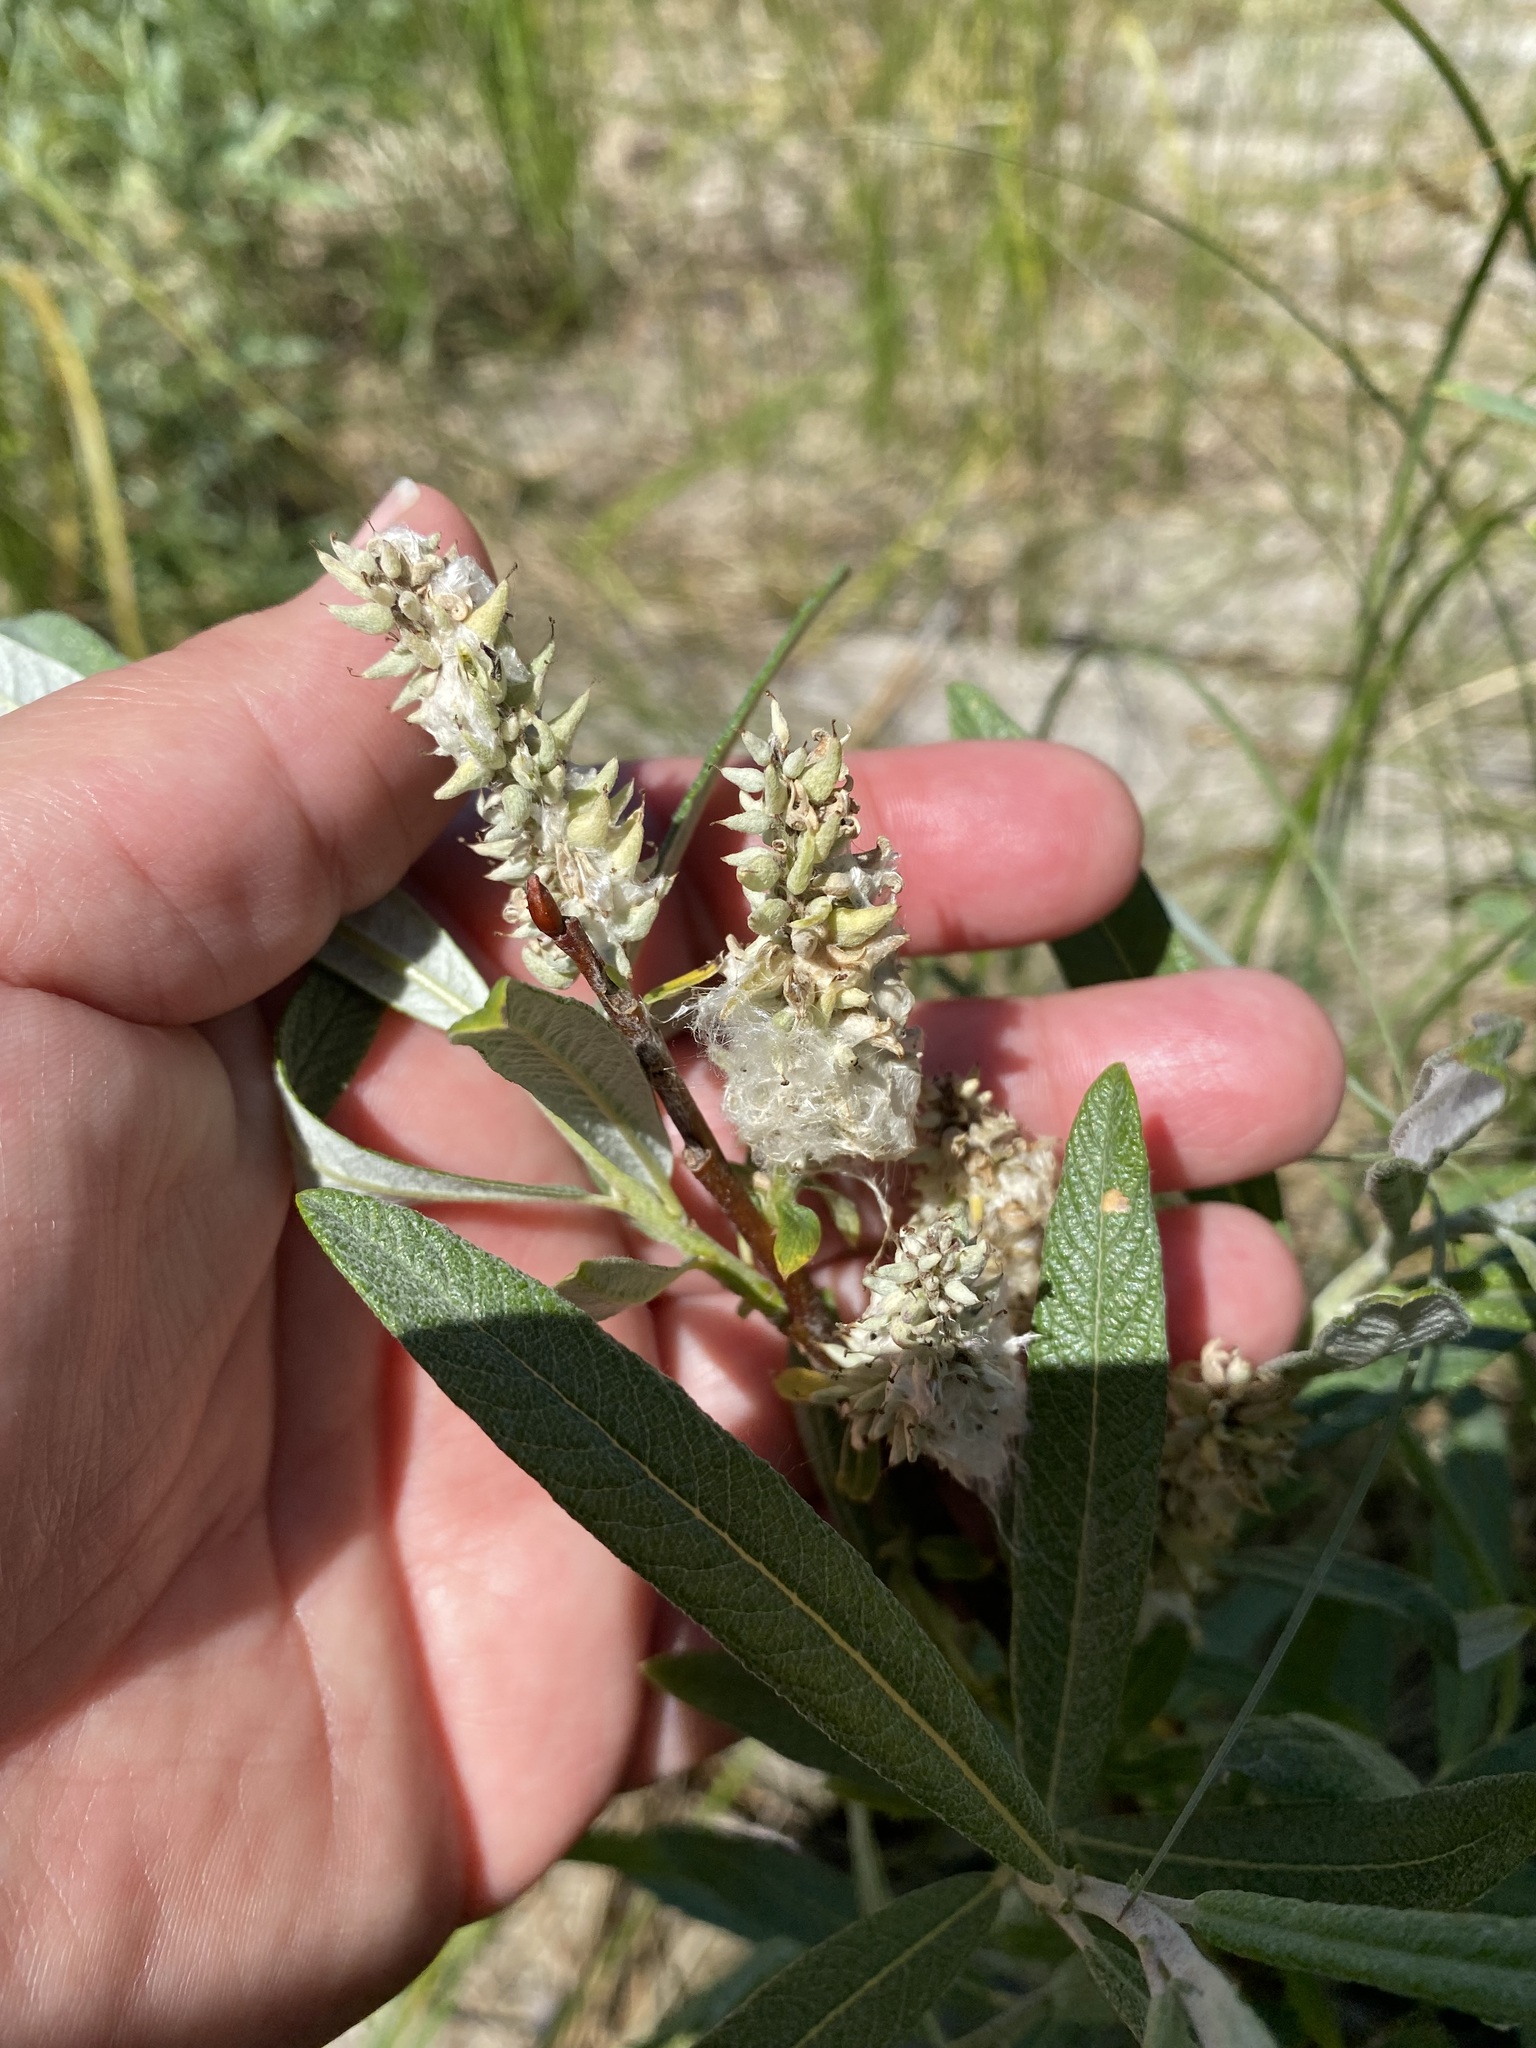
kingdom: Plantae
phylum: Tracheophyta
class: Magnoliopsida
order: Malpighiales
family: Salicaceae
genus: Salix
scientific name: Salix candida
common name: Hoary willow
